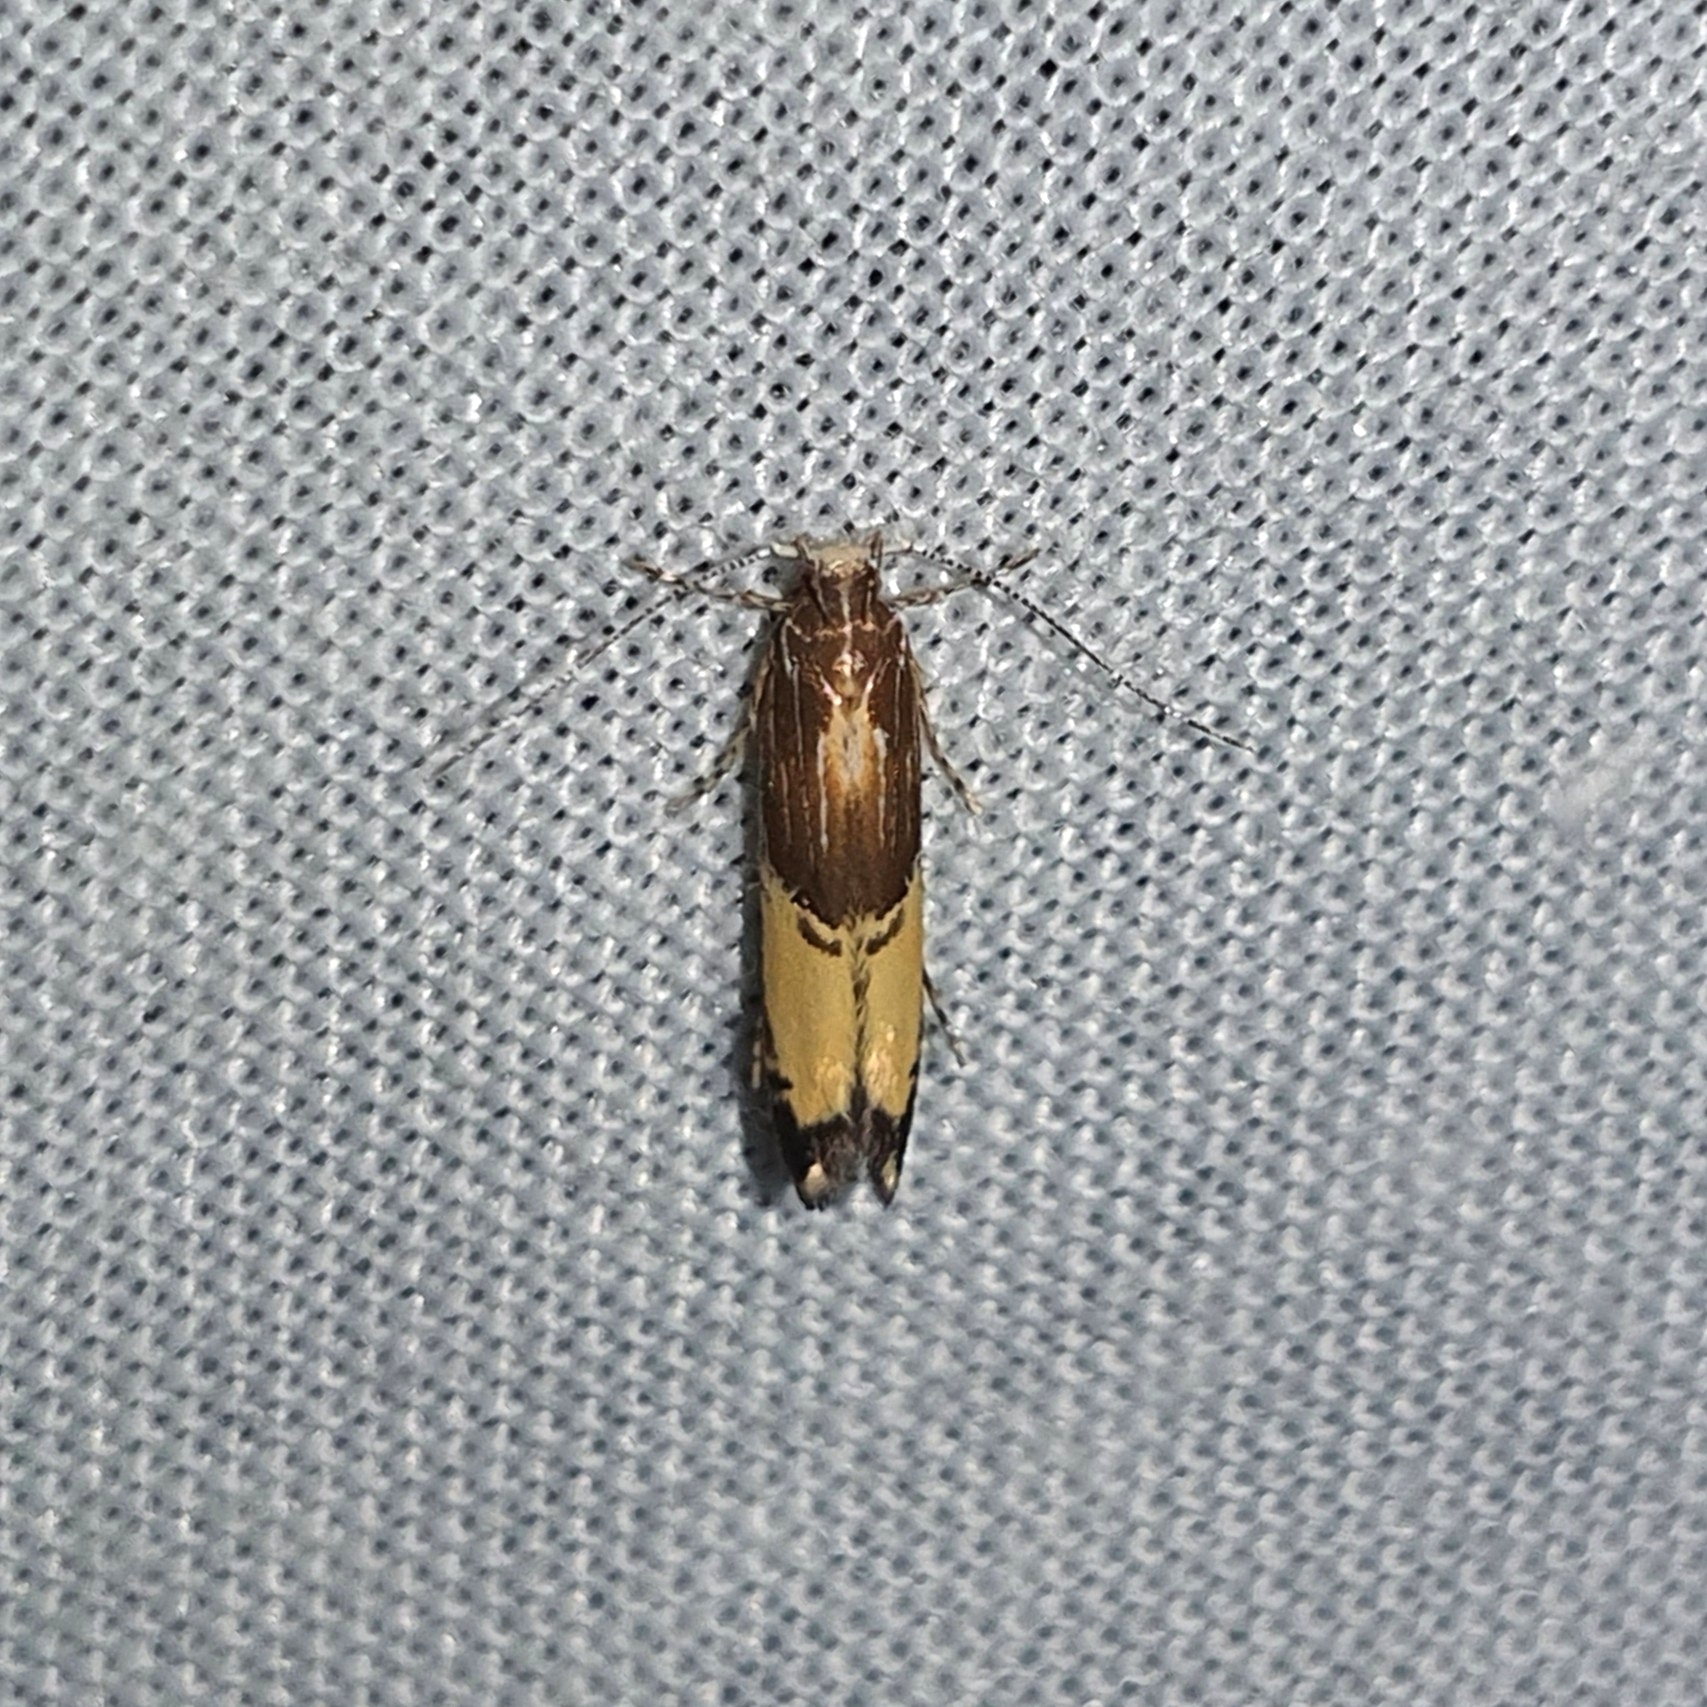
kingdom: Animalia
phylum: Arthropoda
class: Insecta
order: Lepidoptera
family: Cosmopterigidae
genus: Labdia
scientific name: Labdia deliciosella
